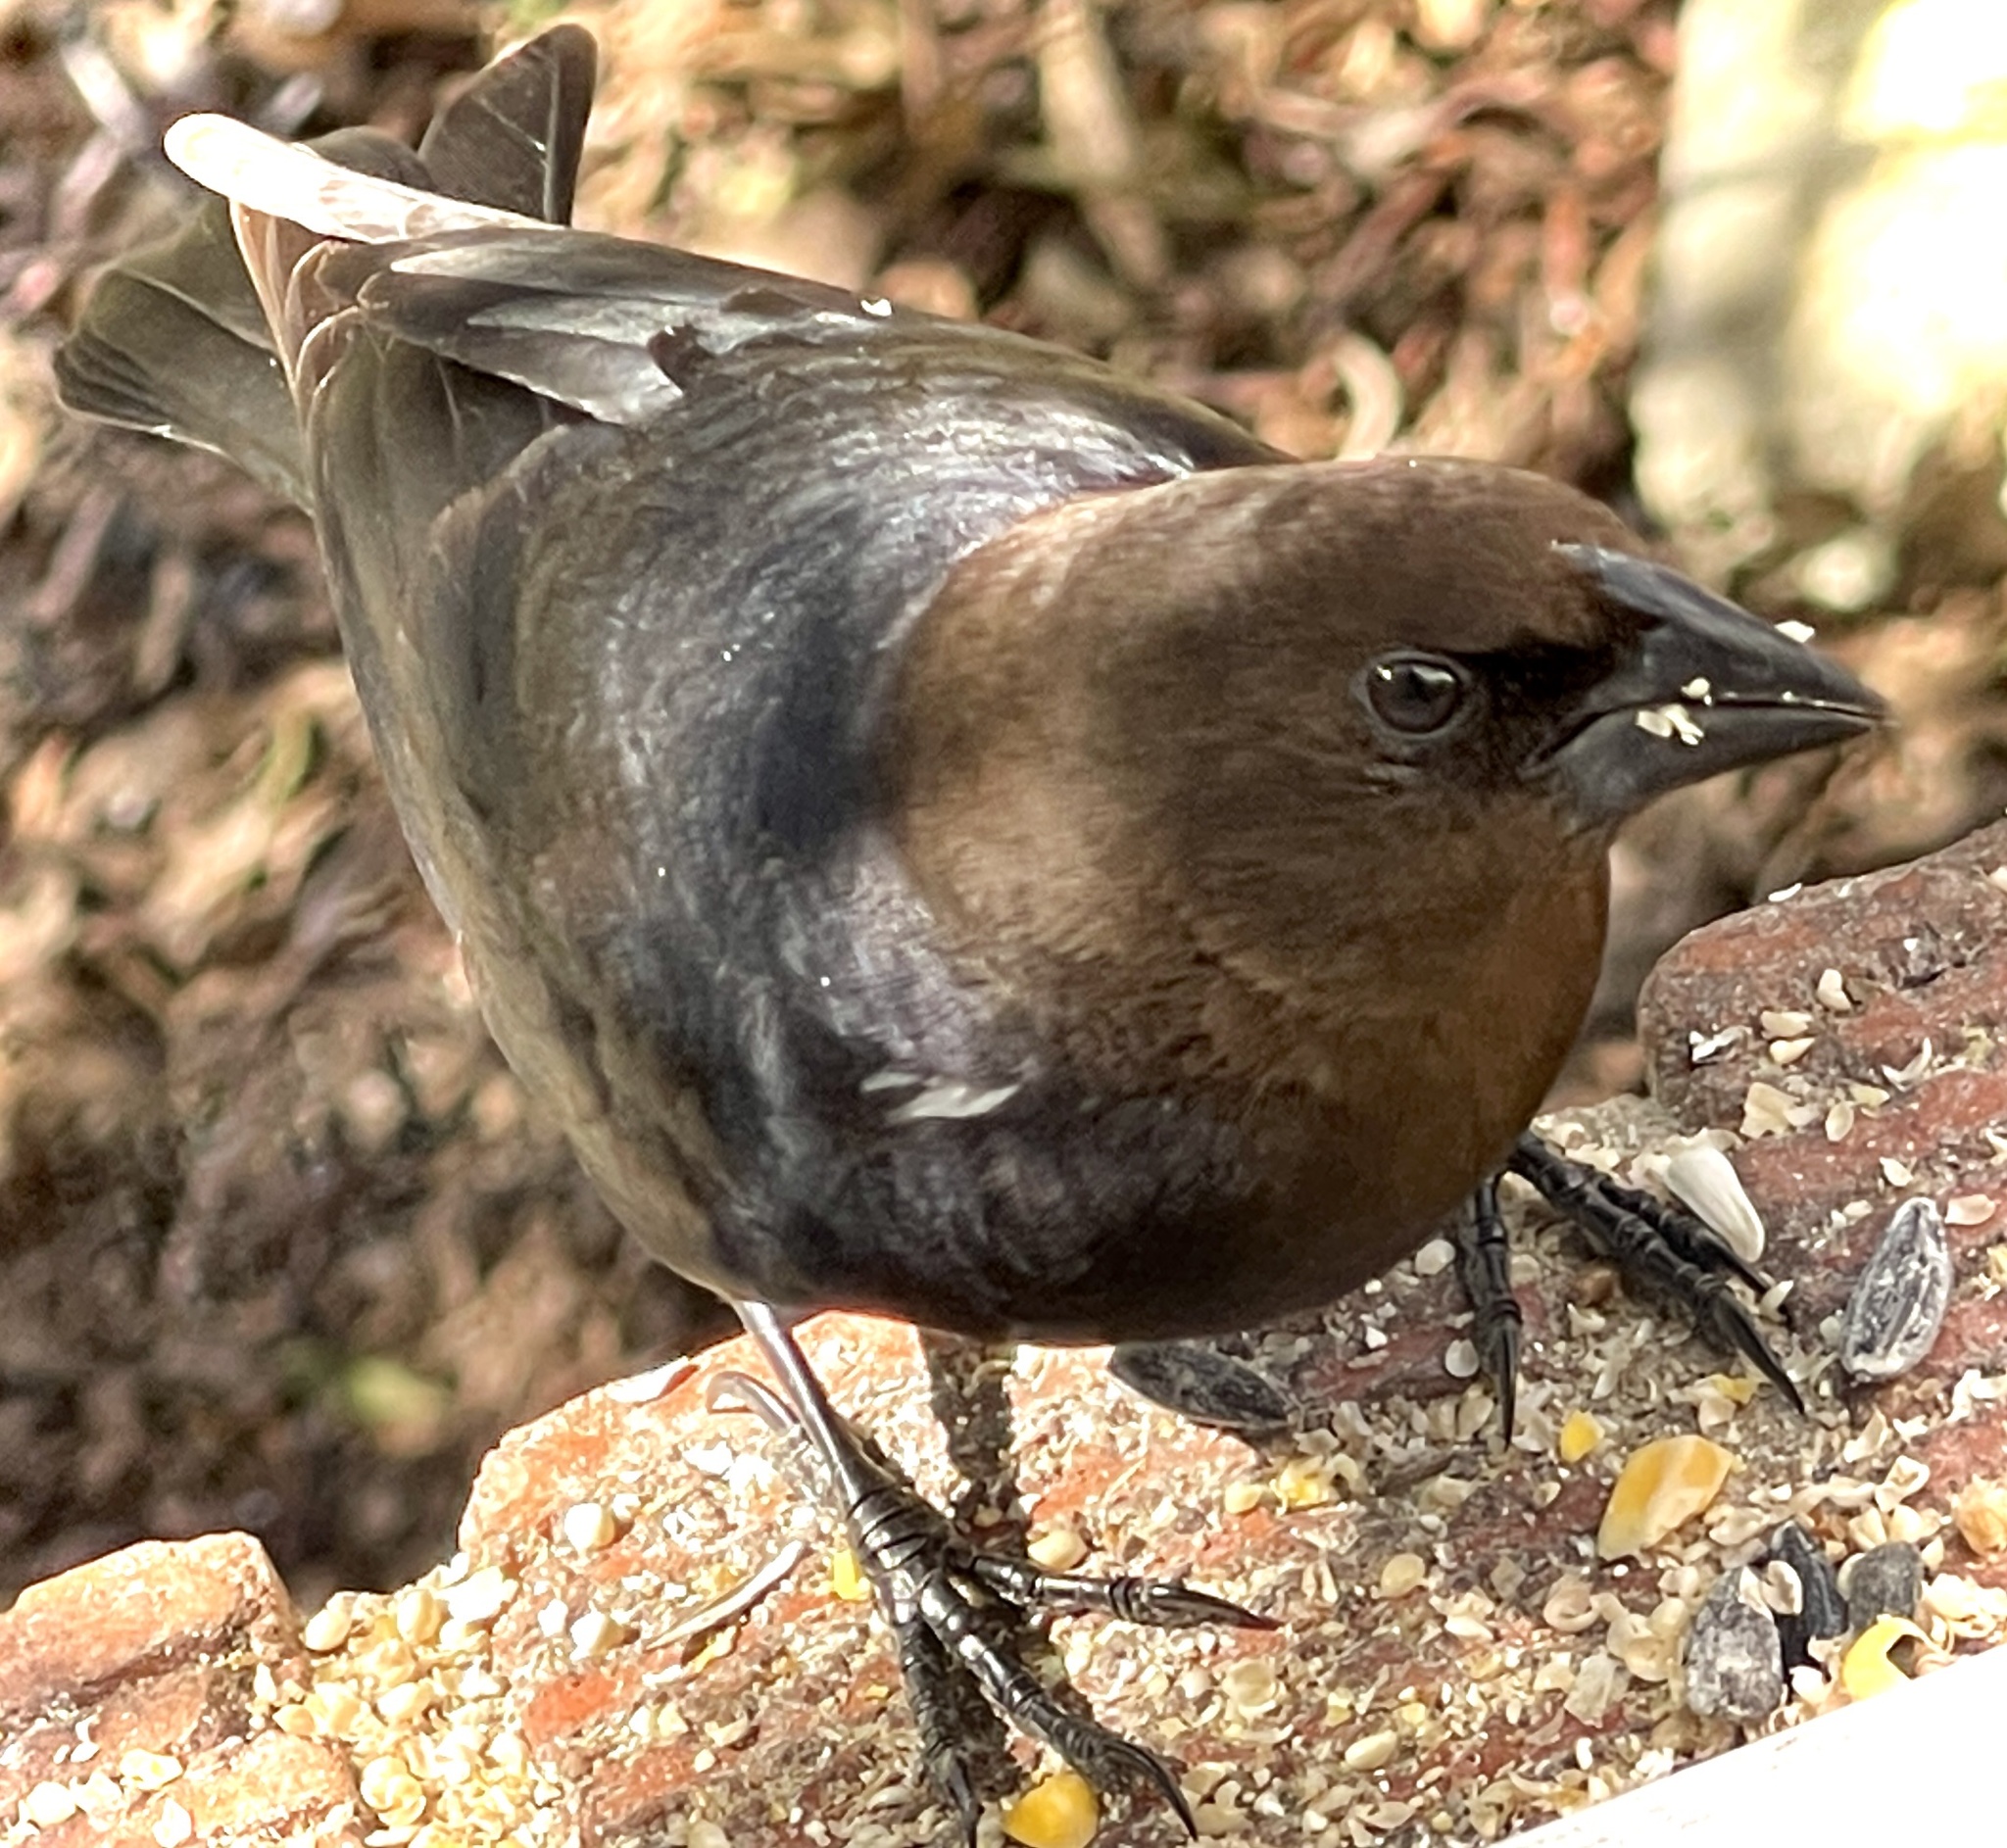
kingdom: Animalia
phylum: Chordata
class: Aves
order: Passeriformes
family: Icteridae
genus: Molothrus
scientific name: Molothrus ater
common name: Brown-headed cowbird
